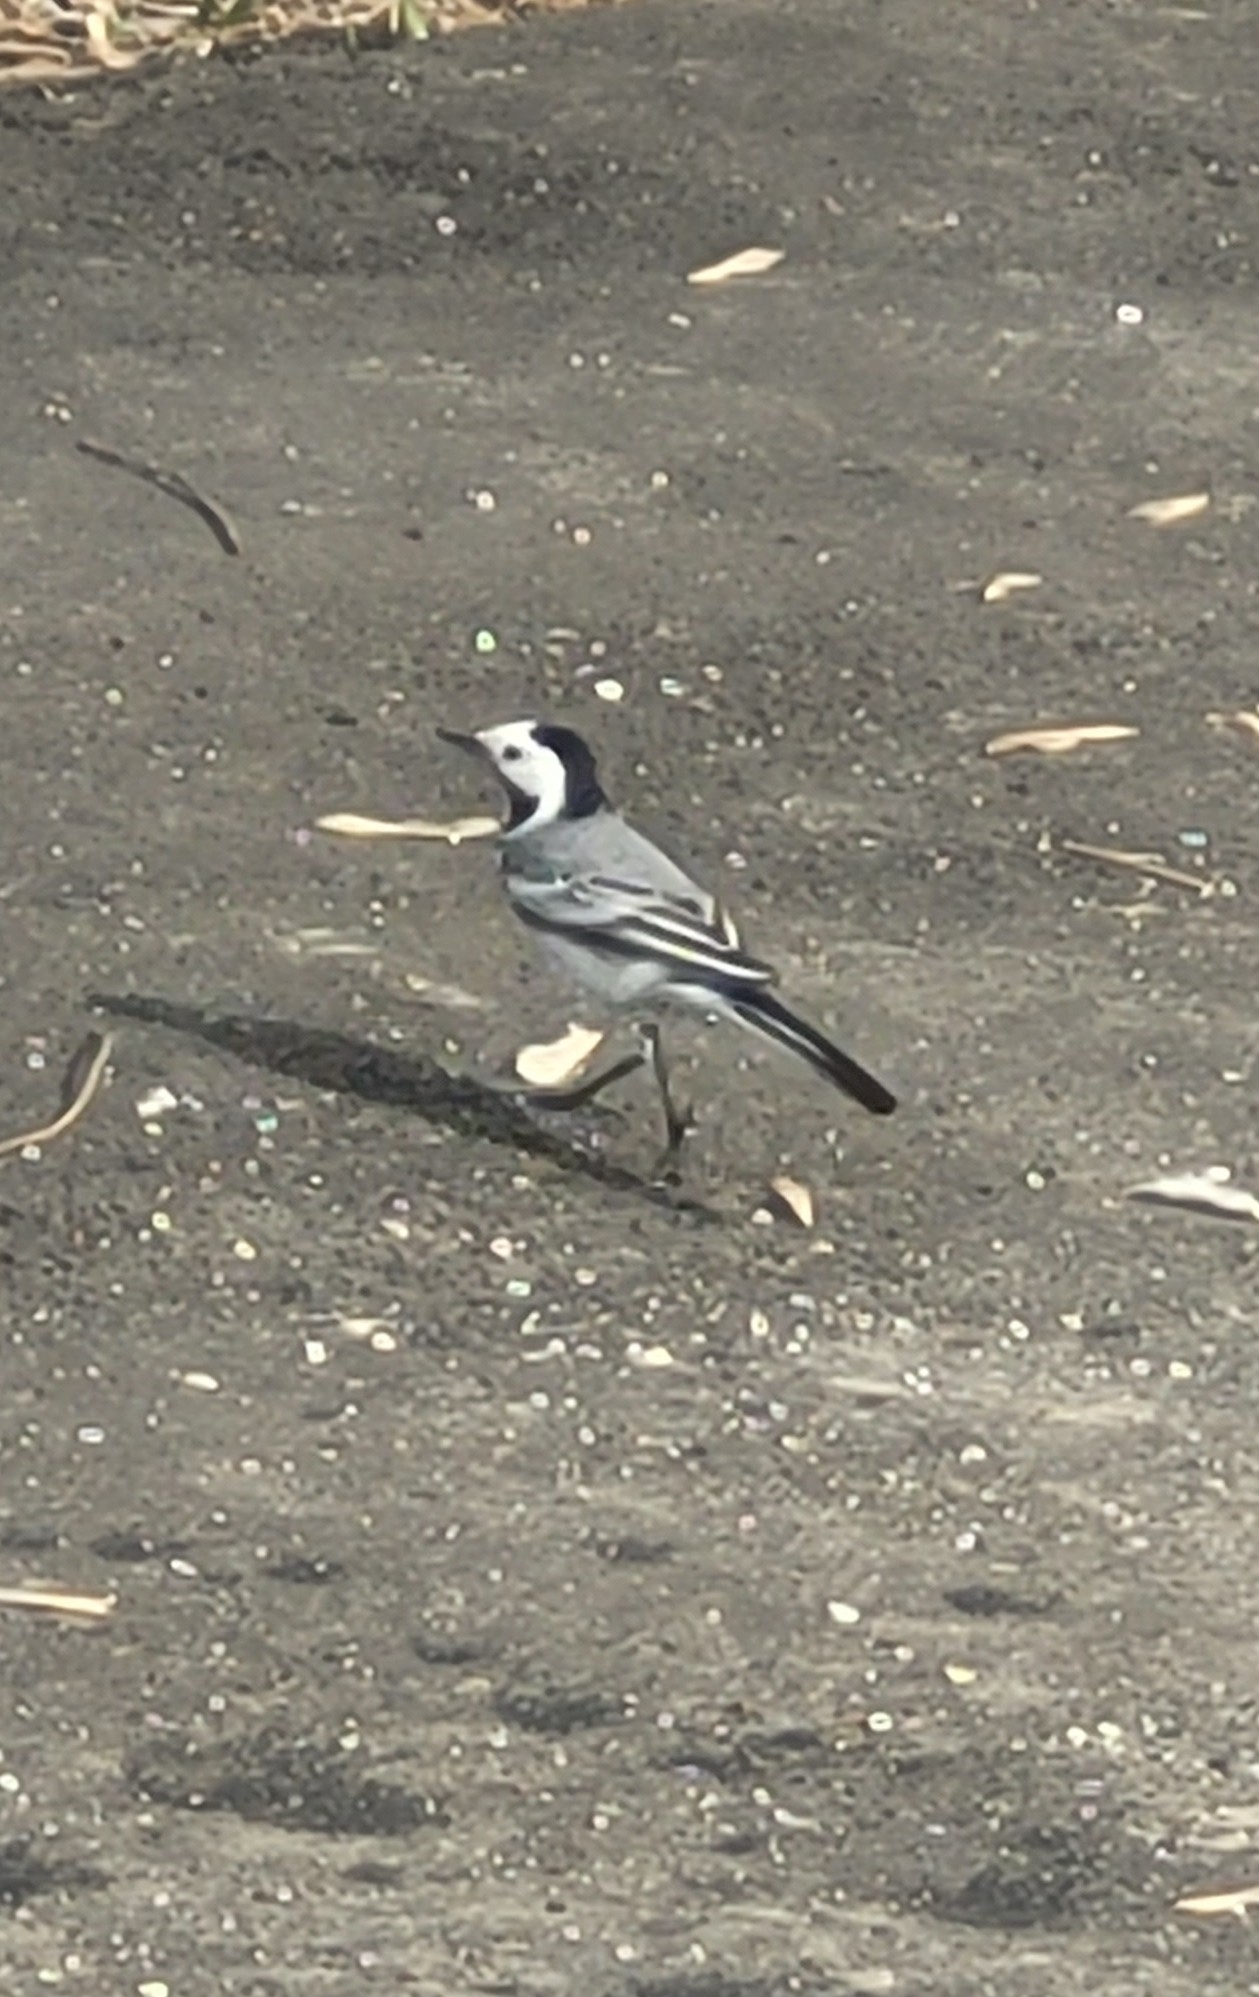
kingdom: Animalia
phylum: Chordata
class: Aves
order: Passeriformes
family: Motacillidae
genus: Motacilla
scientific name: Motacilla alba
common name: White wagtail
